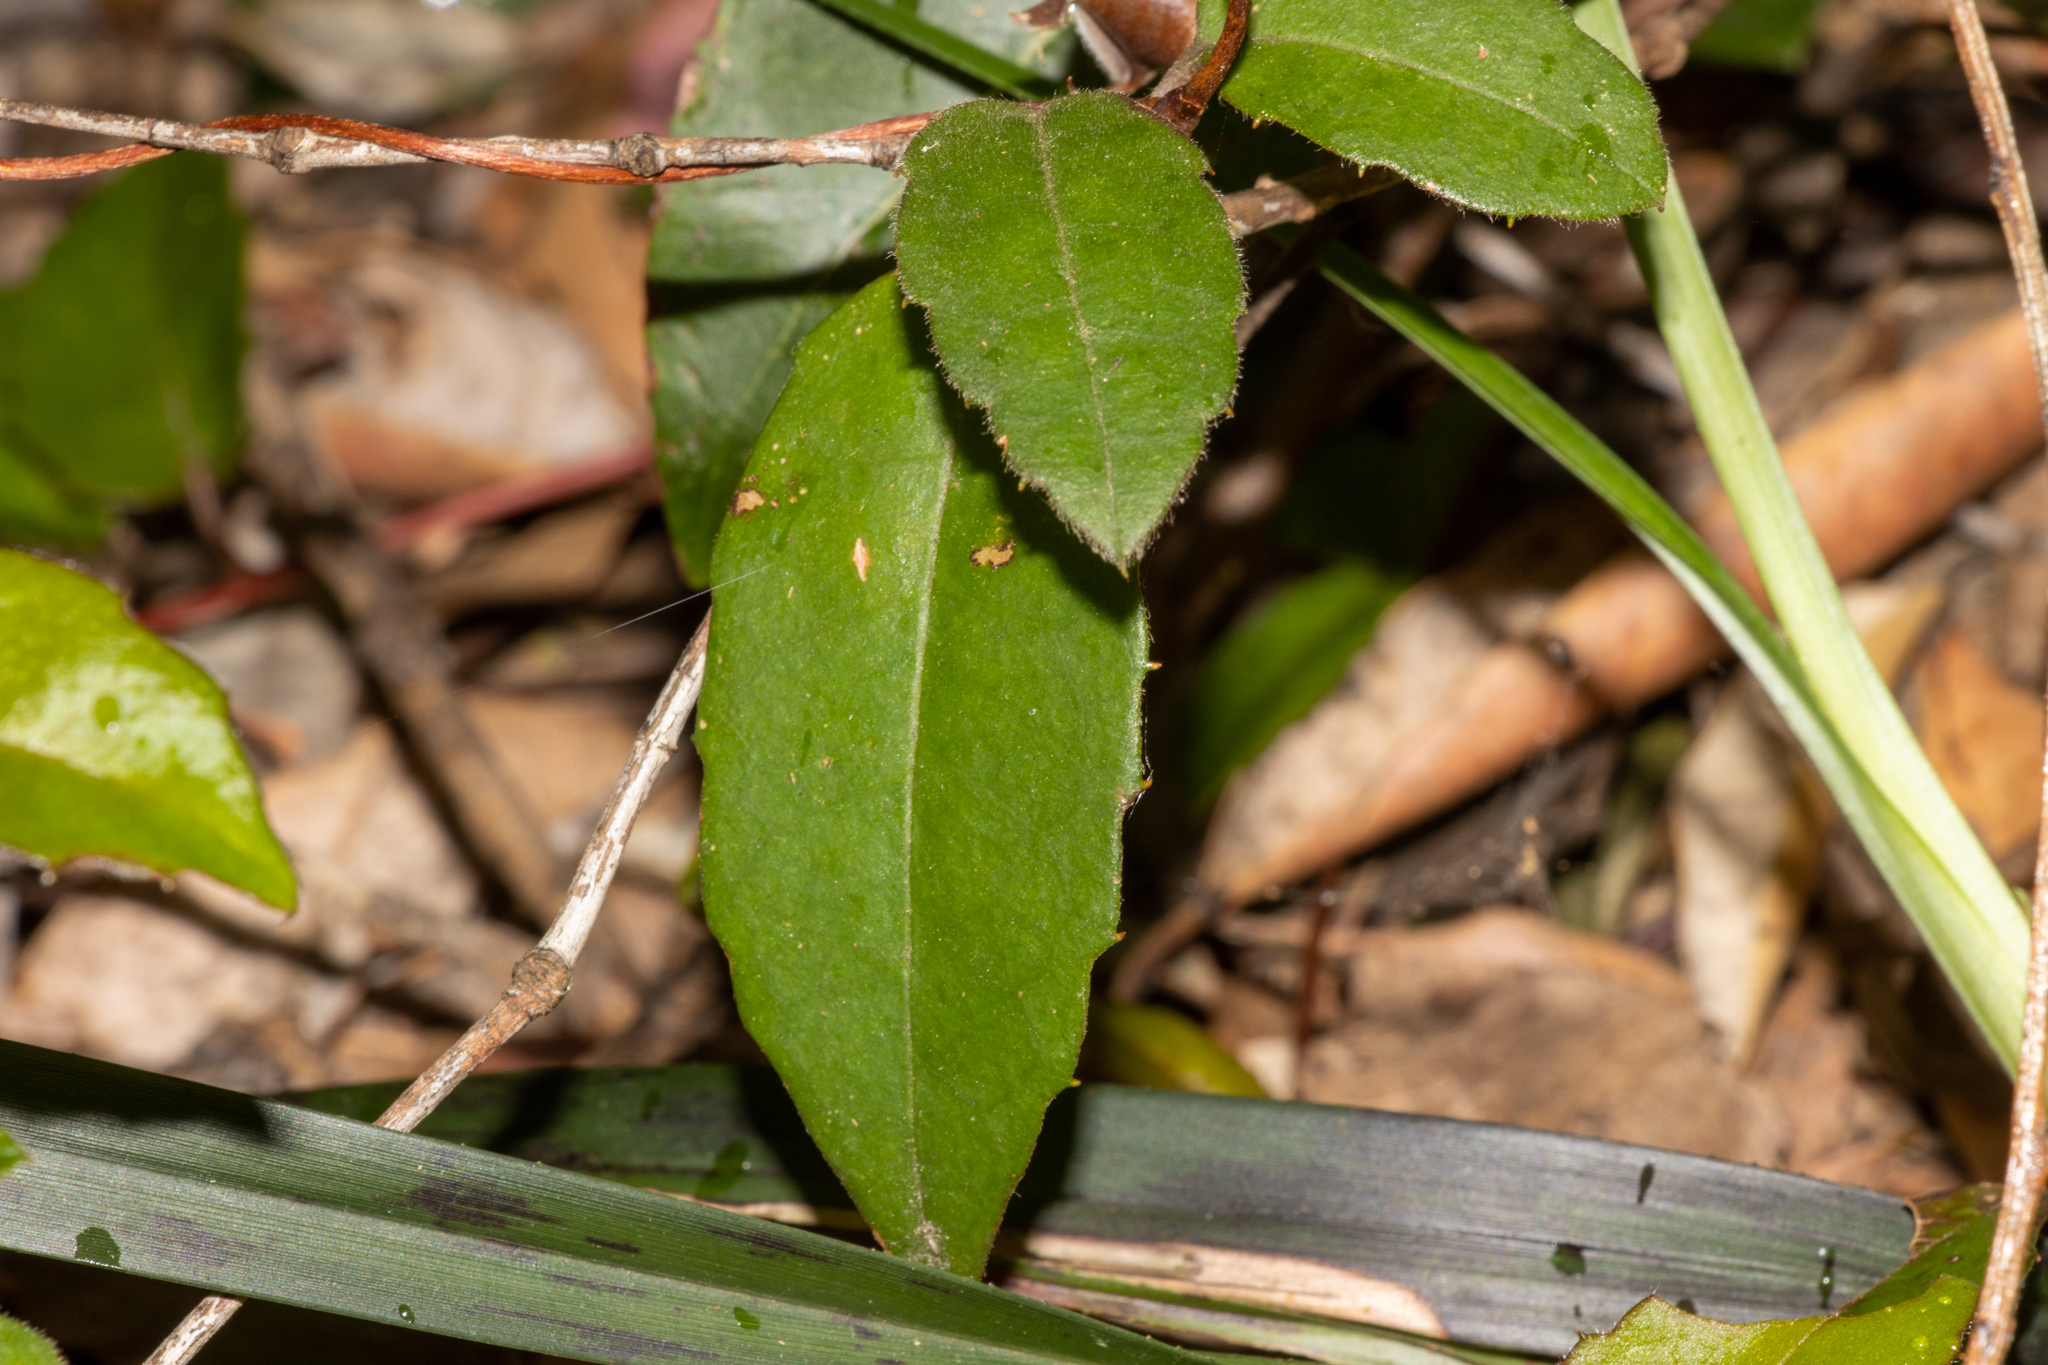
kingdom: Plantae
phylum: Tracheophyta
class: Magnoliopsida
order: Dilleniales
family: Dilleniaceae
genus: Hibbertia
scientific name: Hibbertia dentata
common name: Trailing guinea-flower
